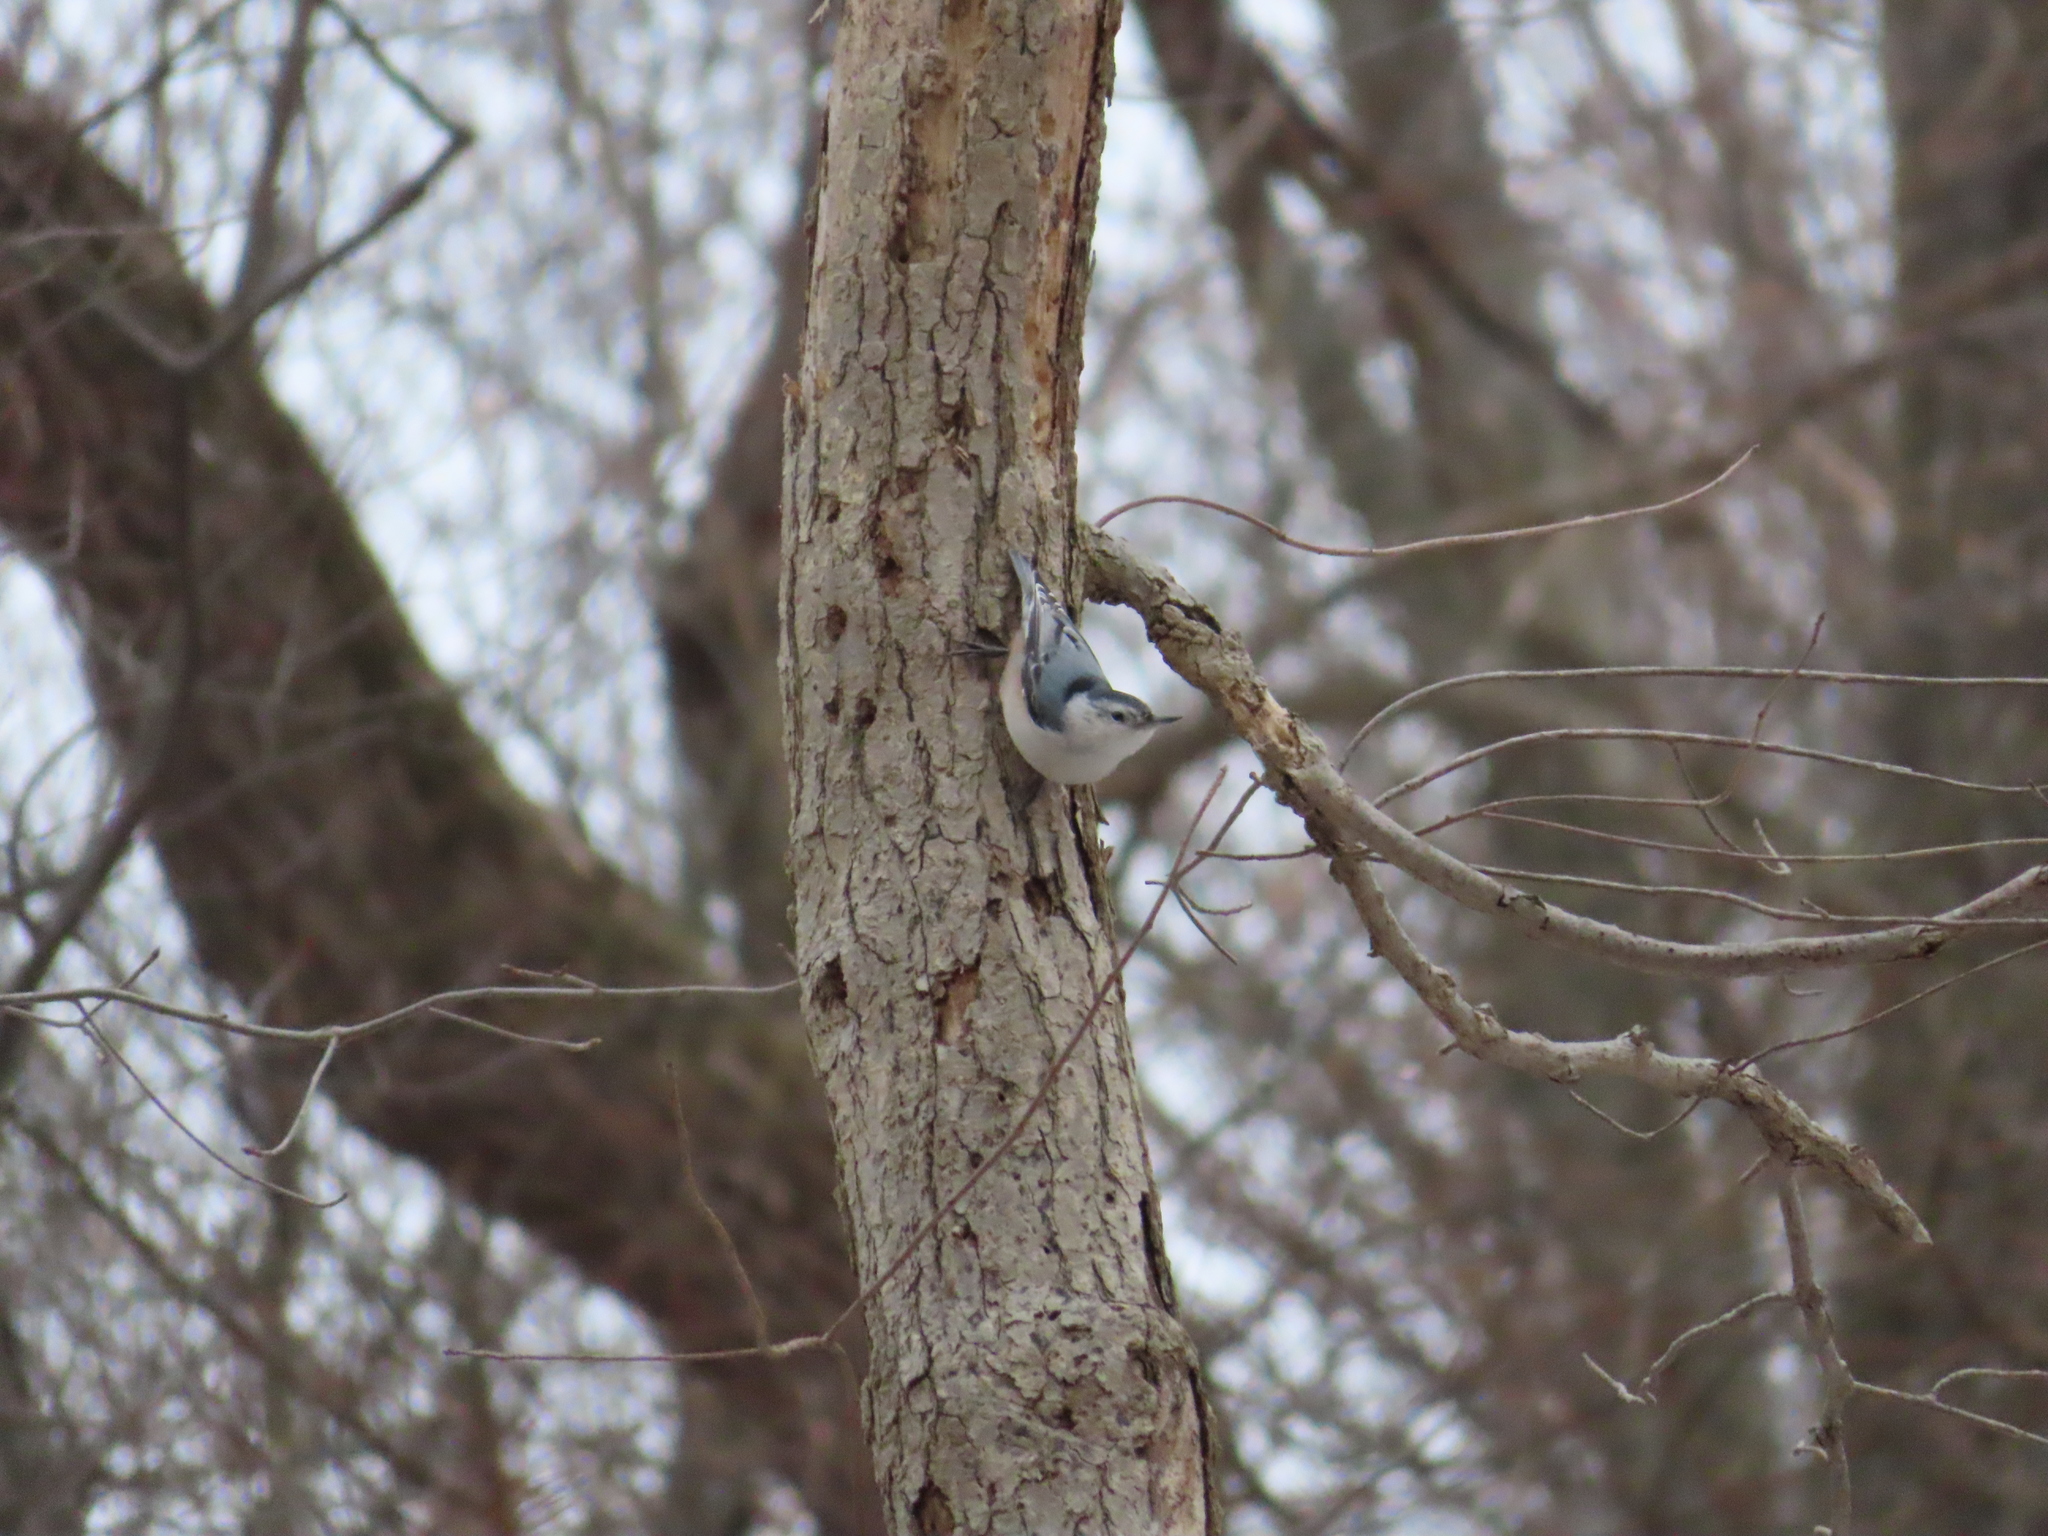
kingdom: Animalia
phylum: Chordata
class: Aves
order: Passeriformes
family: Sittidae
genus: Sitta
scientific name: Sitta carolinensis
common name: White-breasted nuthatch
